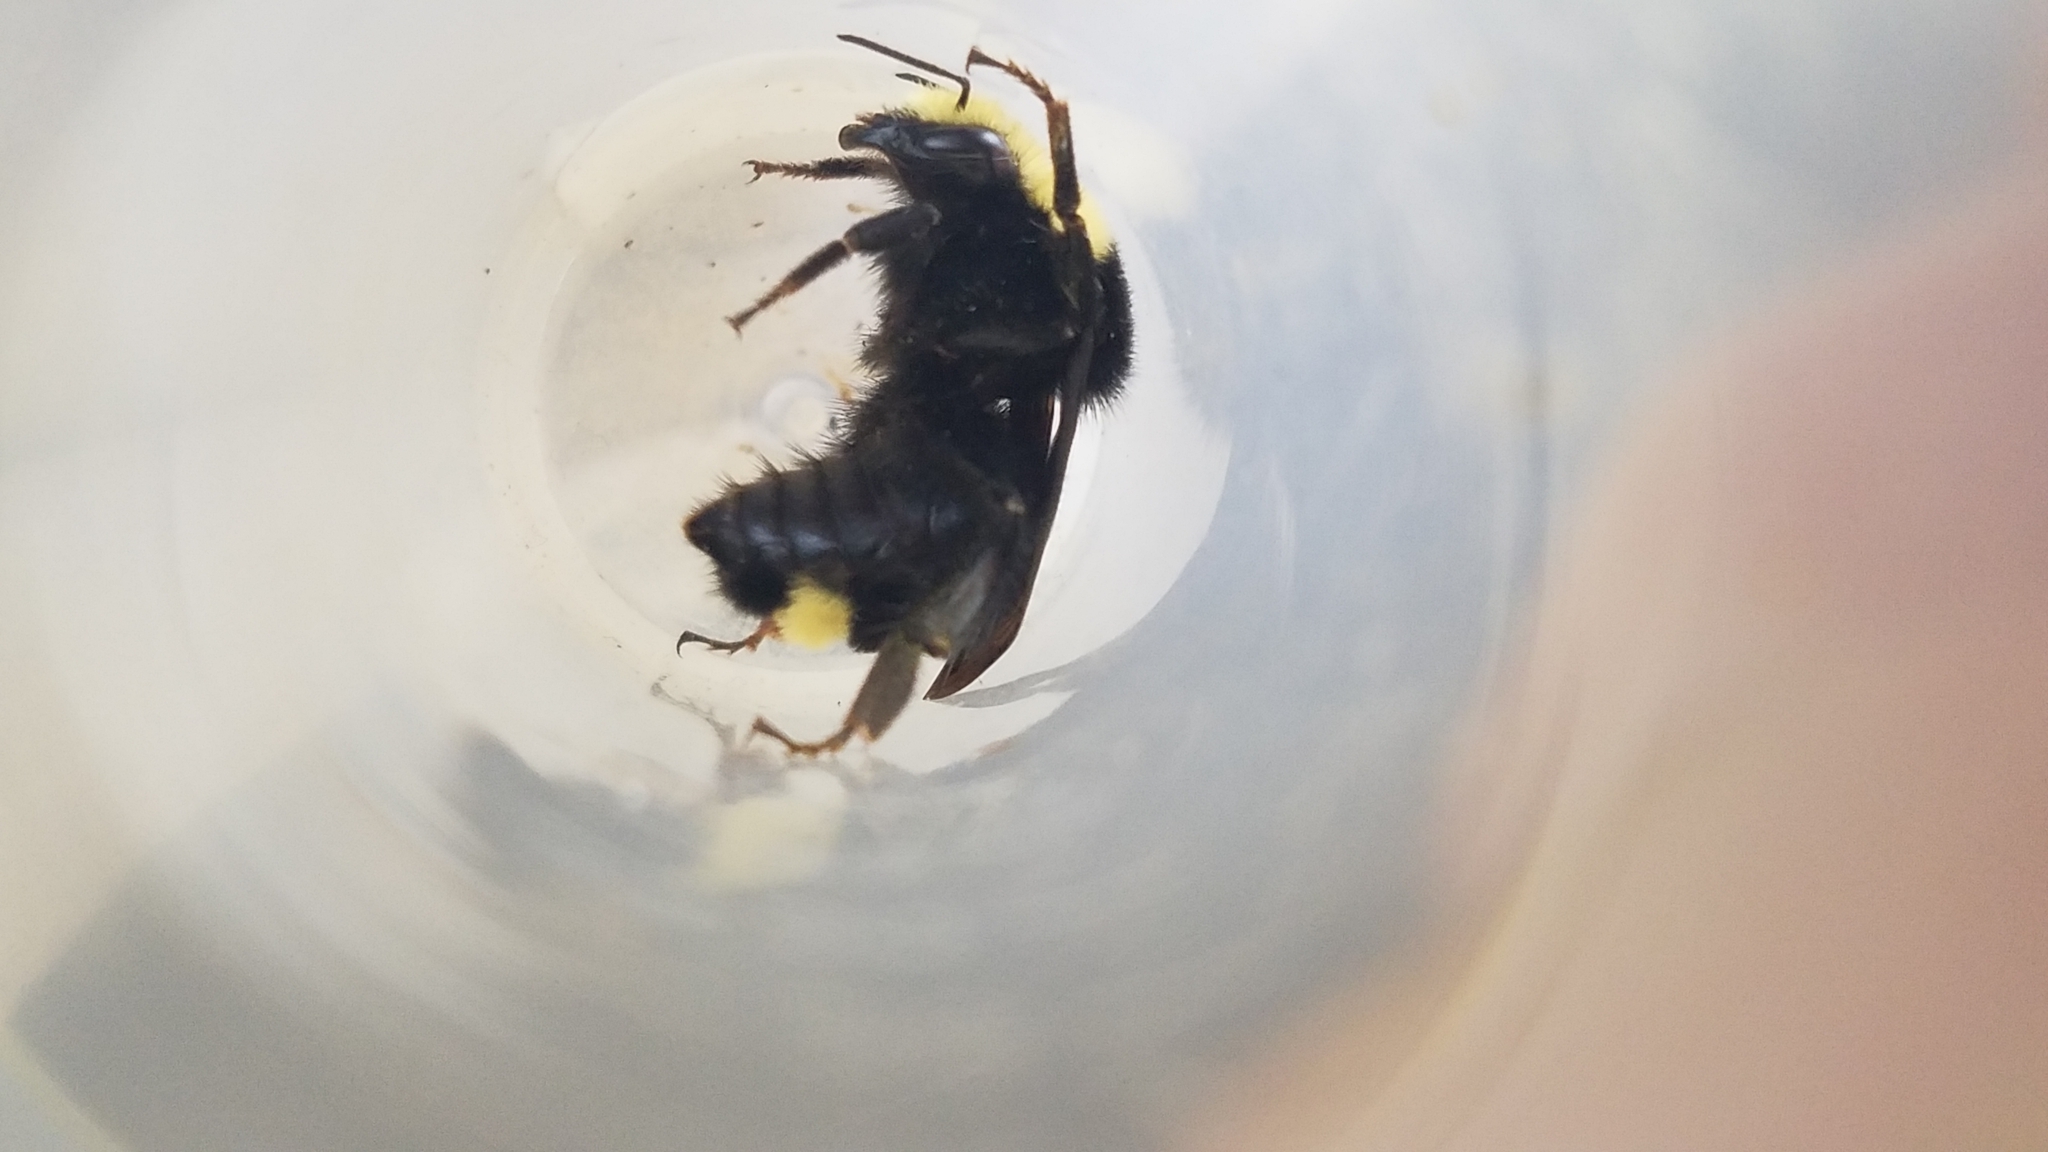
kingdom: Animalia
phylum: Arthropoda
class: Insecta
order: Hymenoptera
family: Apidae
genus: Bombus
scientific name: Bombus vosnesenskii
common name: Vosnesensky bumble bee
